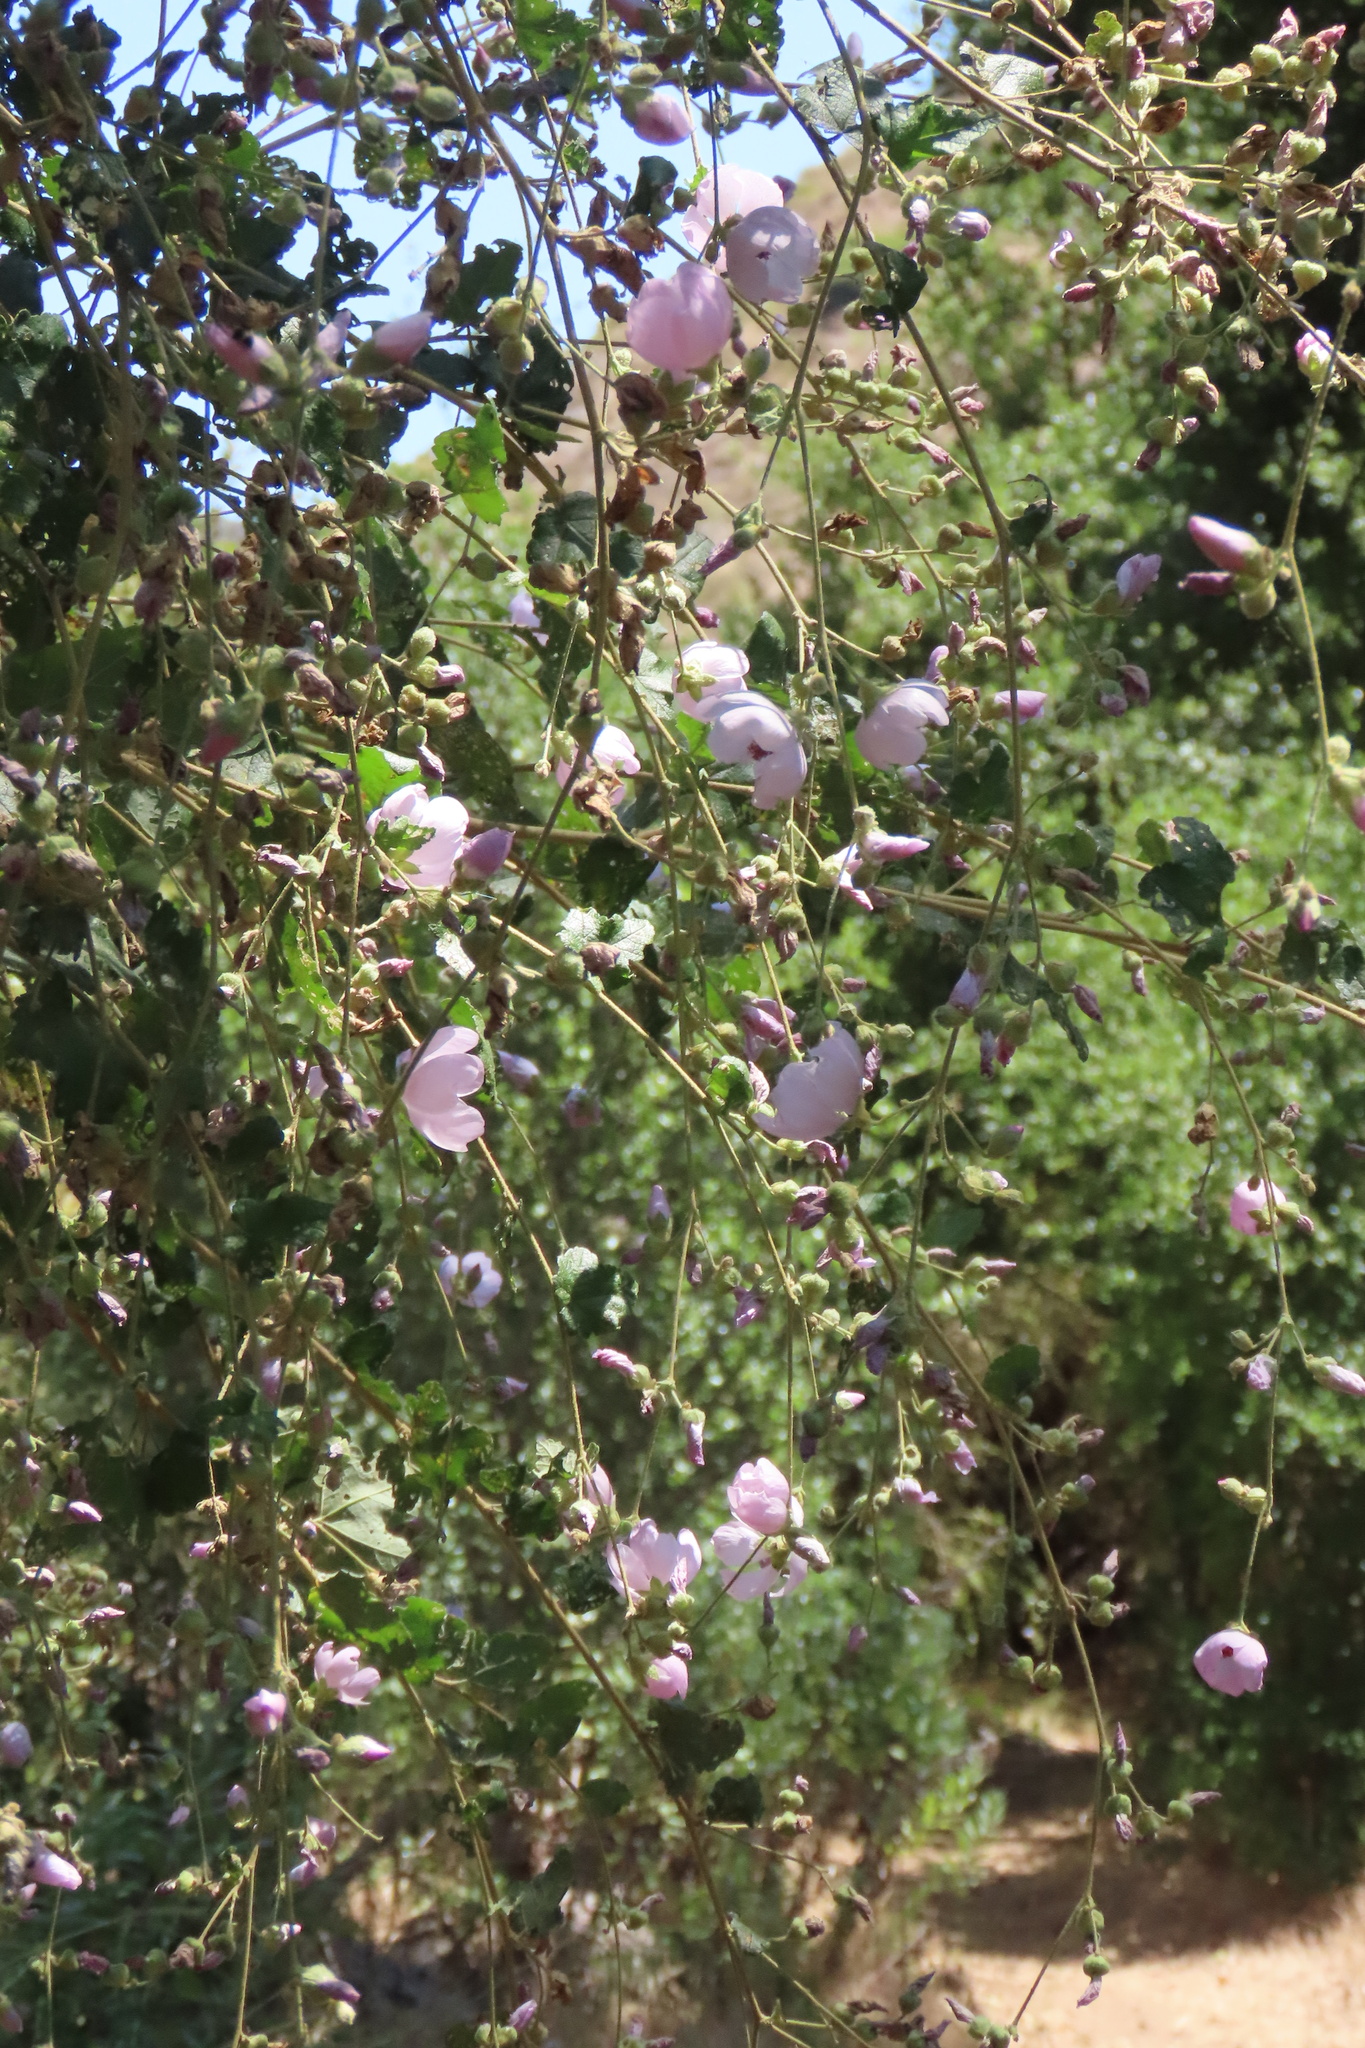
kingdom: Plantae
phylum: Tracheophyta
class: Magnoliopsida
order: Malvales
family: Malvaceae
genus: Malacothamnus
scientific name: Malacothamnus fasciculatus
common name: Sant cruz island bush-mallow
